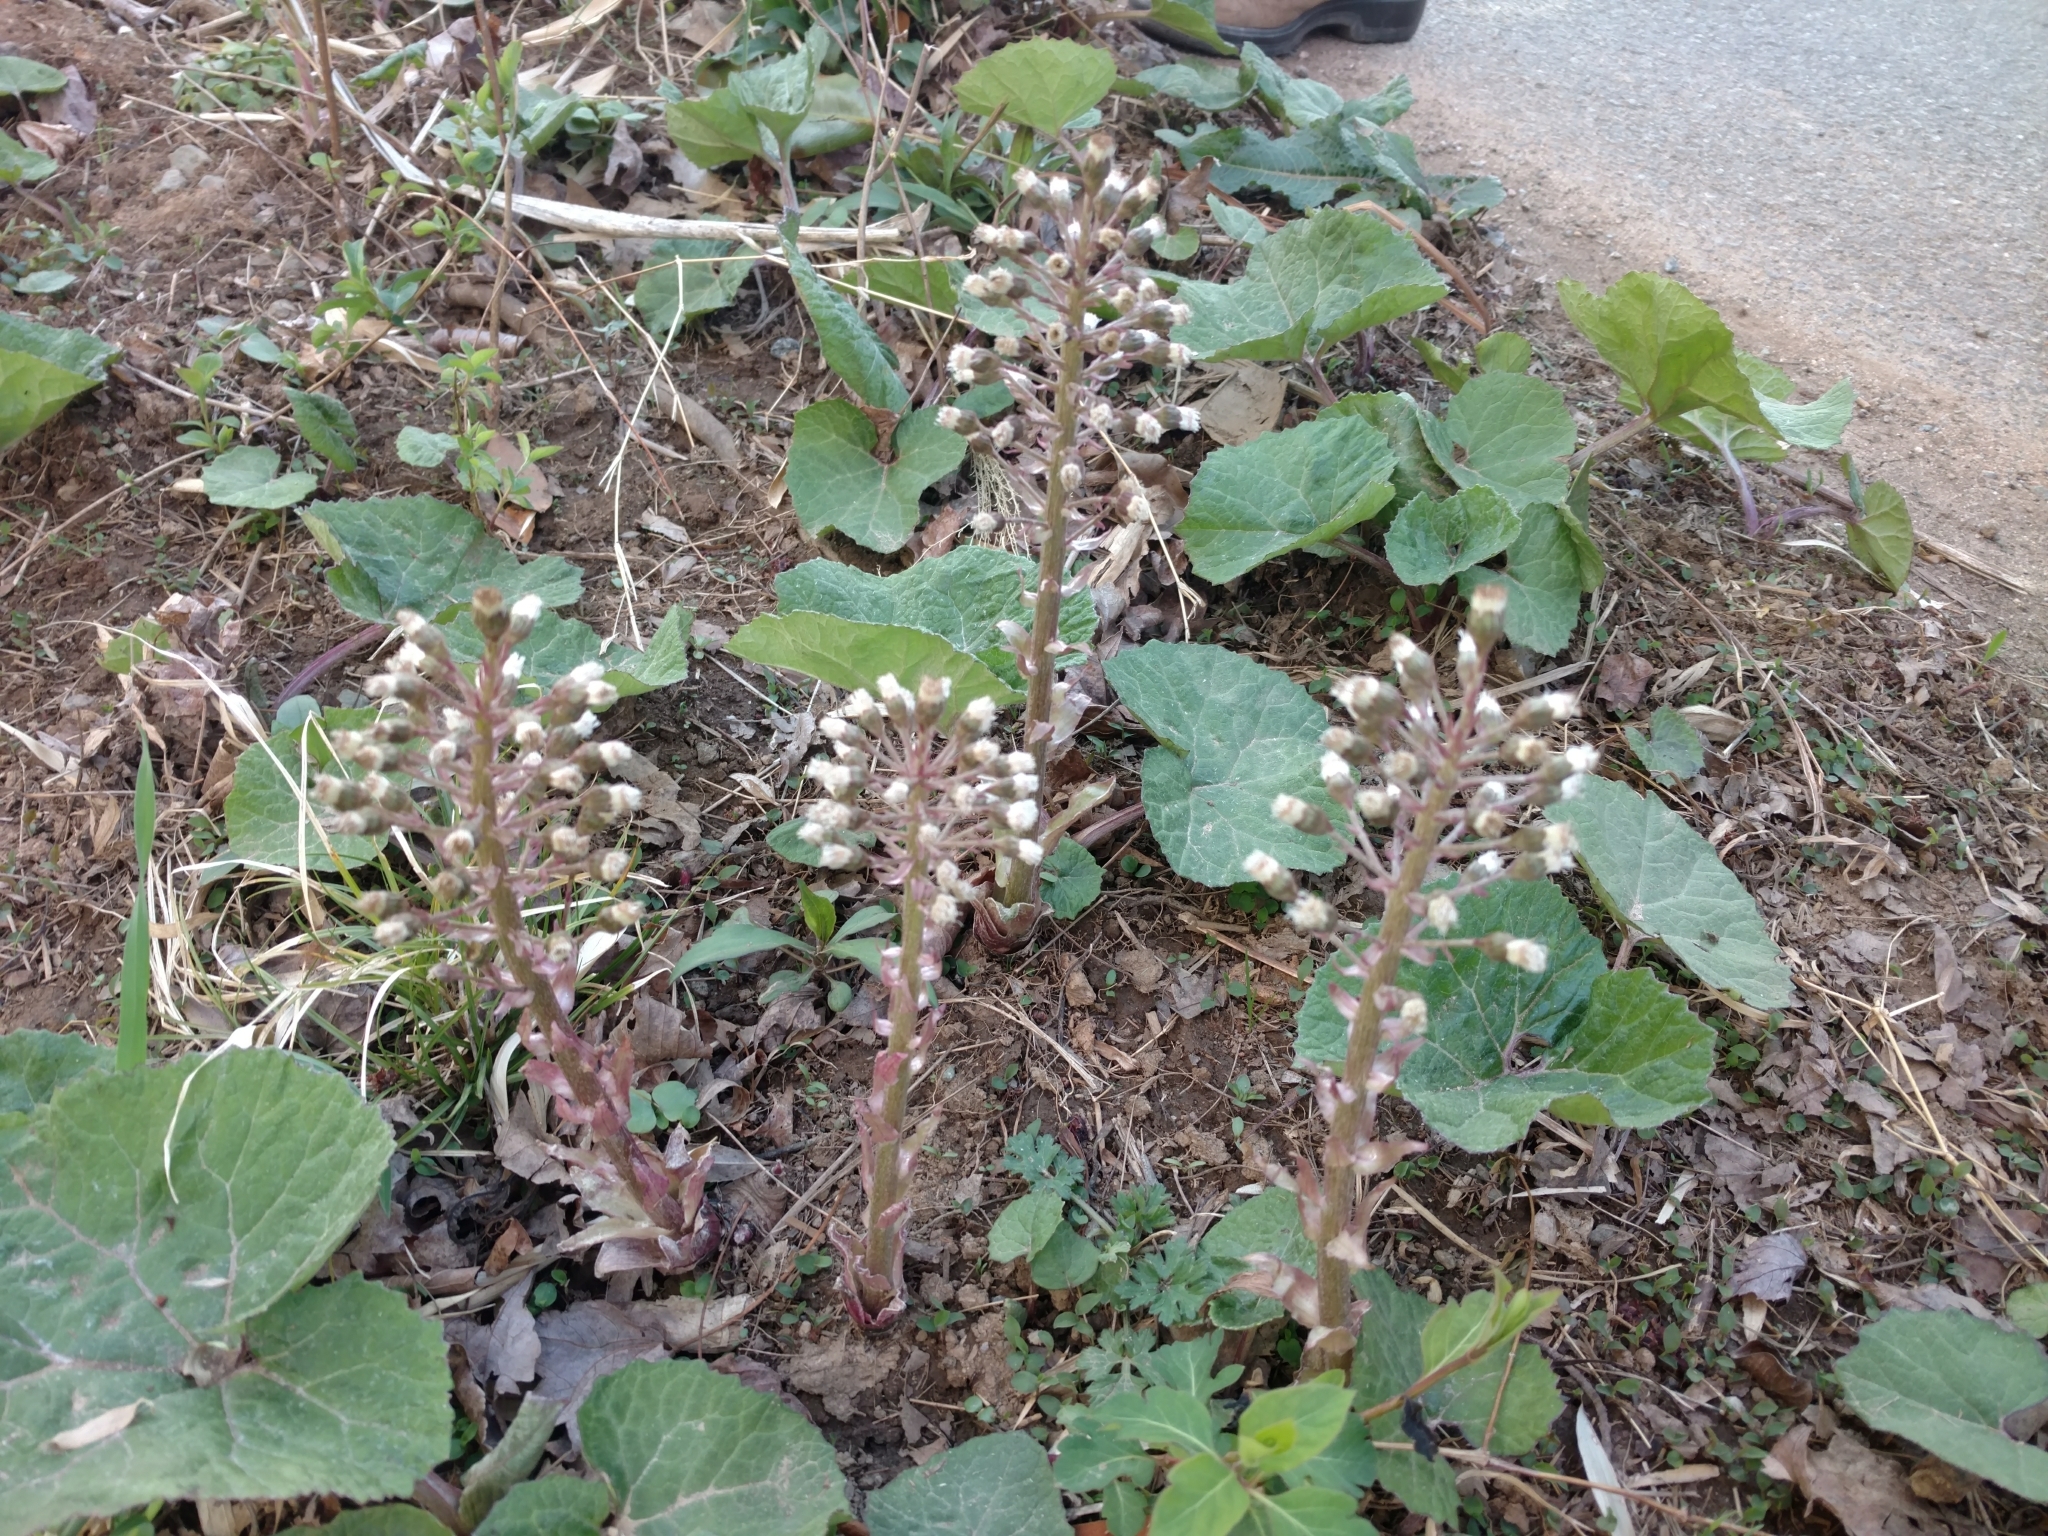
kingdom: Plantae
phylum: Tracheophyta
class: Magnoliopsida
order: Asterales
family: Asteraceae
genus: Petasites
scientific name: Petasites hybridus
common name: Butterbur
